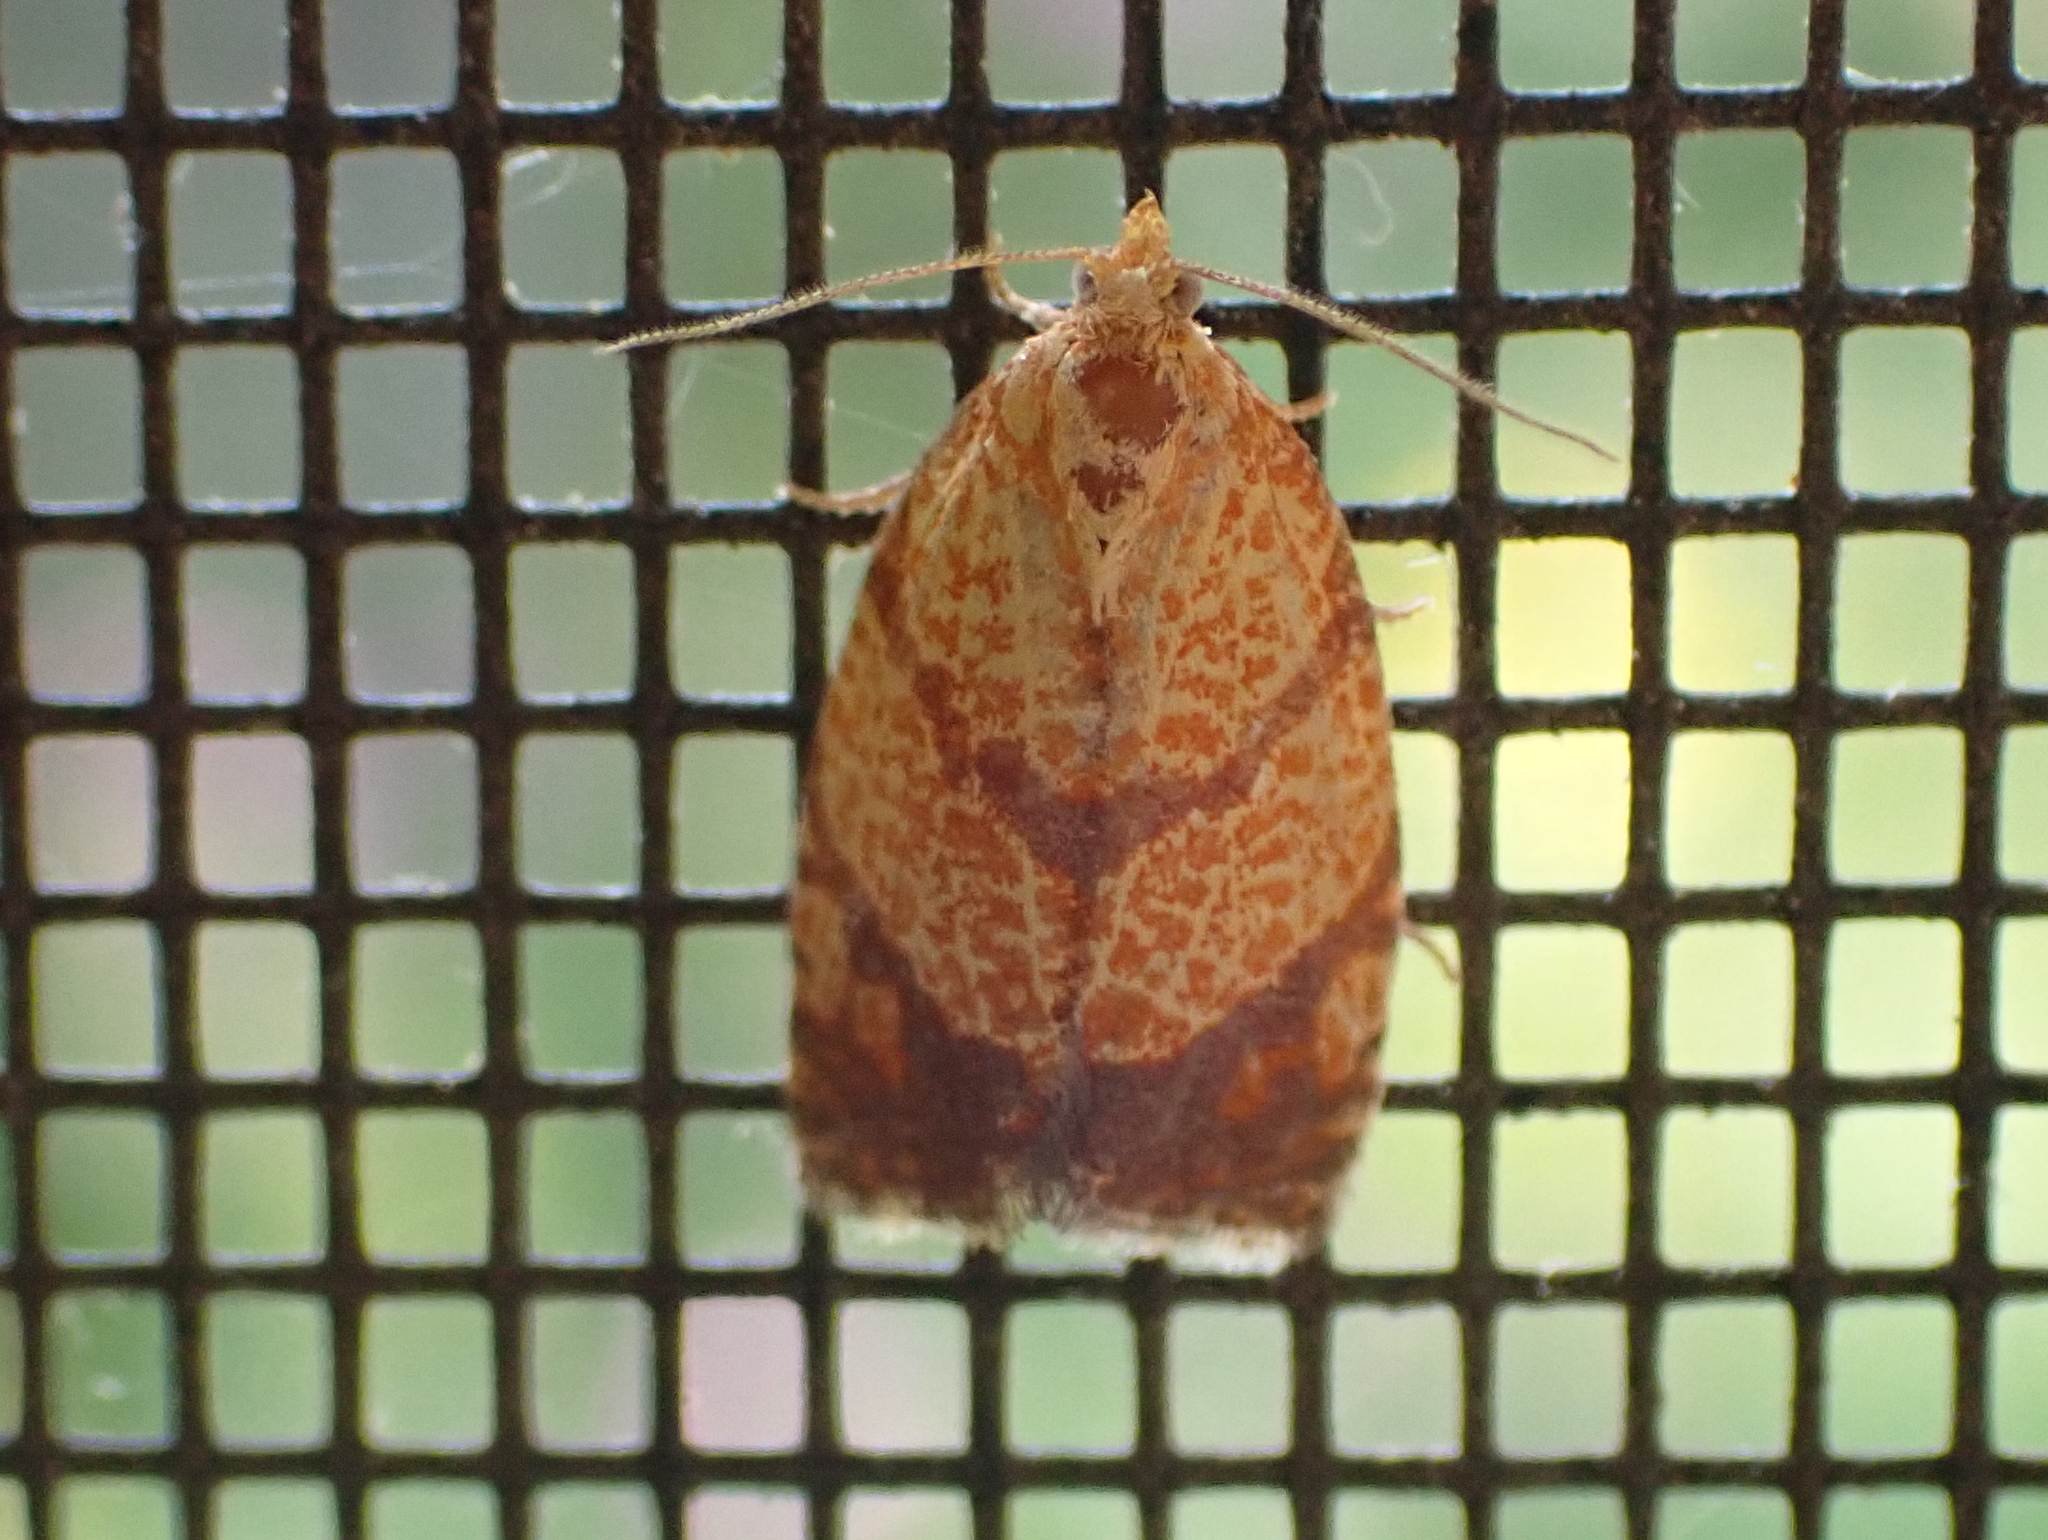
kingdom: Animalia
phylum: Arthropoda
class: Insecta
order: Lepidoptera
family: Tortricidae
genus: Argyrotaenia
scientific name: Argyrotaenia quadrifasciana
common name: Four-lined leafroller moth
